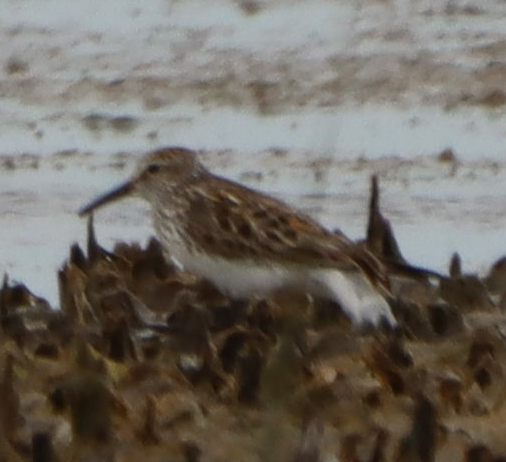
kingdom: Animalia
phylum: Chordata
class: Aves
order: Charadriiformes
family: Scolopacidae
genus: Calidris
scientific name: Calidris fuscicollis
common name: White-rumped sandpiper
